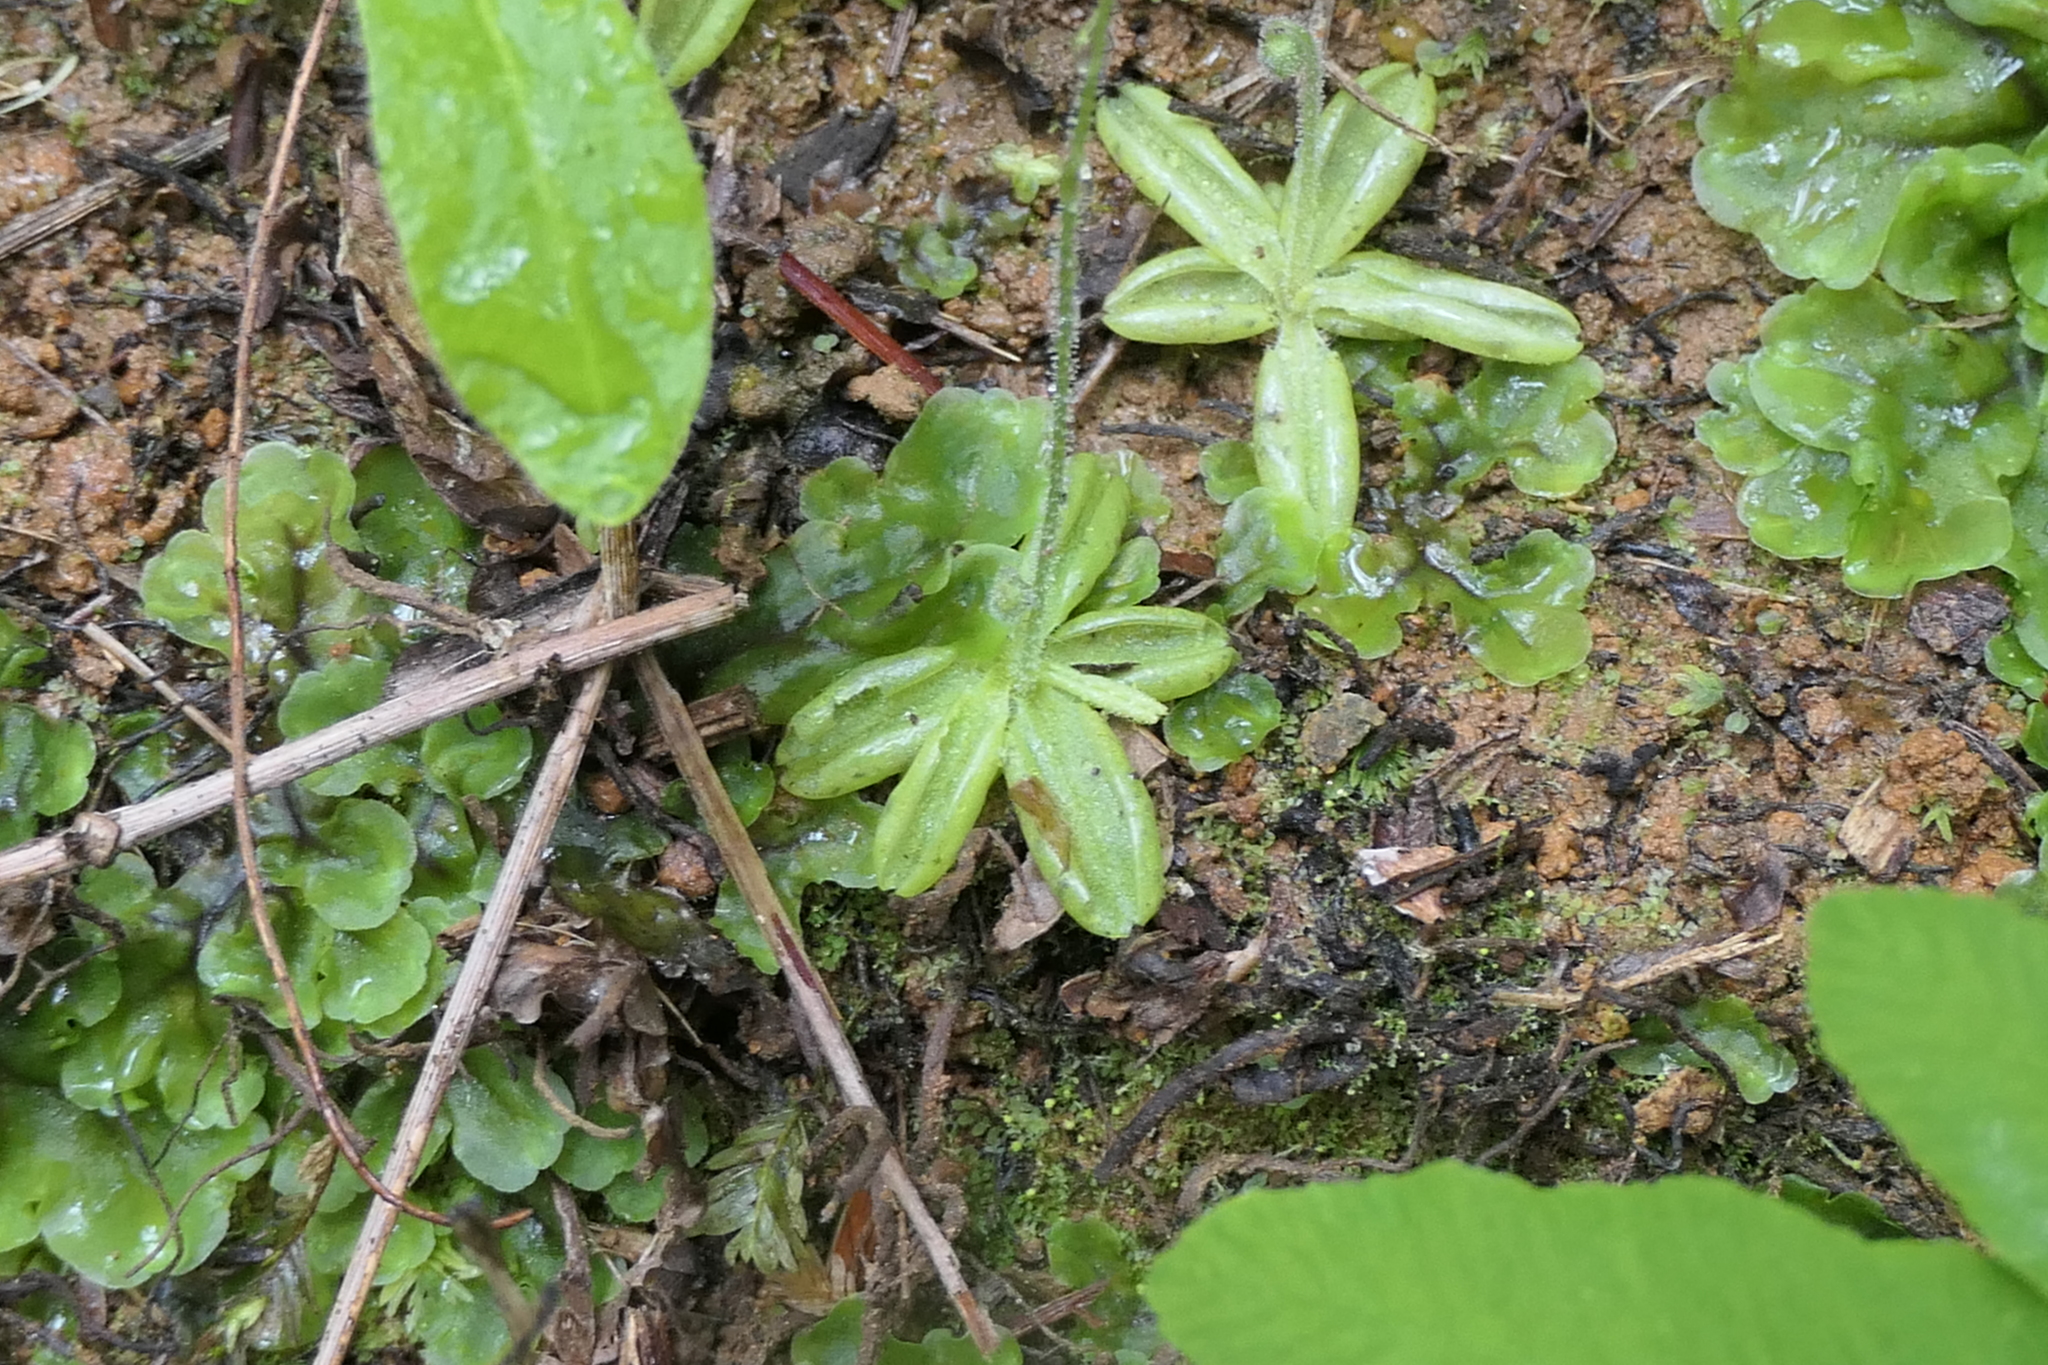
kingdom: Plantae
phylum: Tracheophyta
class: Magnoliopsida
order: Lamiales
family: Lentibulariaceae
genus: Pinguicula
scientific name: Pinguicula lusitanica
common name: Pale butterwort
